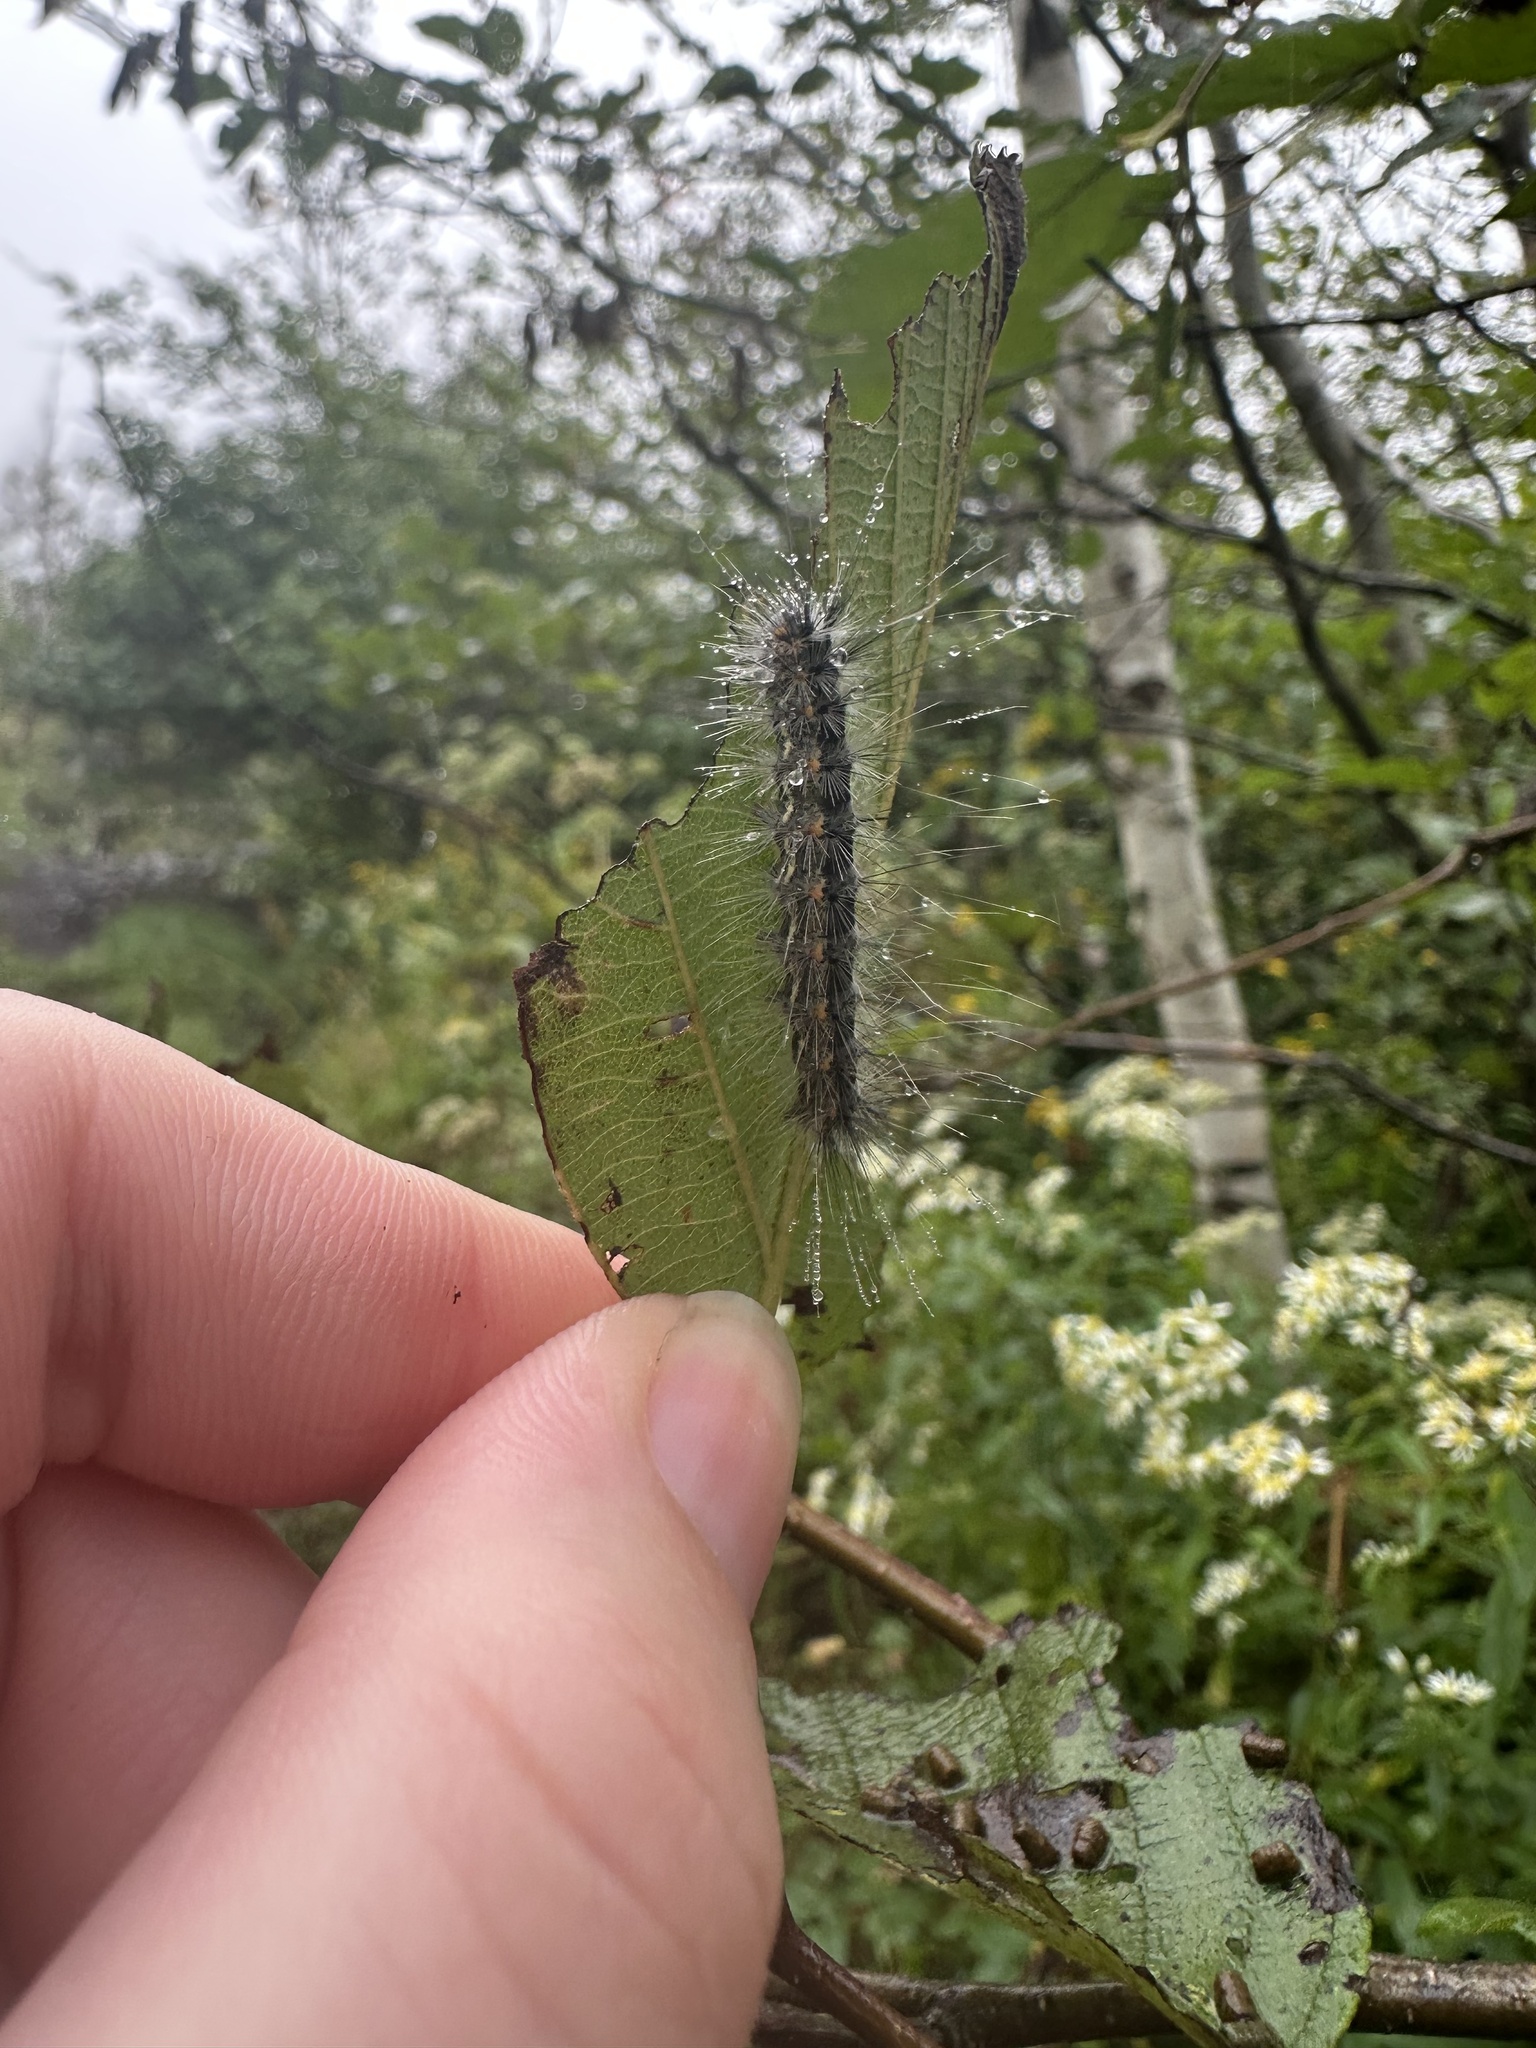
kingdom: Animalia
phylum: Arthropoda
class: Insecta
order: Lepidoptera
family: Erebidae
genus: Hyphantria
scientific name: Hyphantria cunea
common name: American white moth
